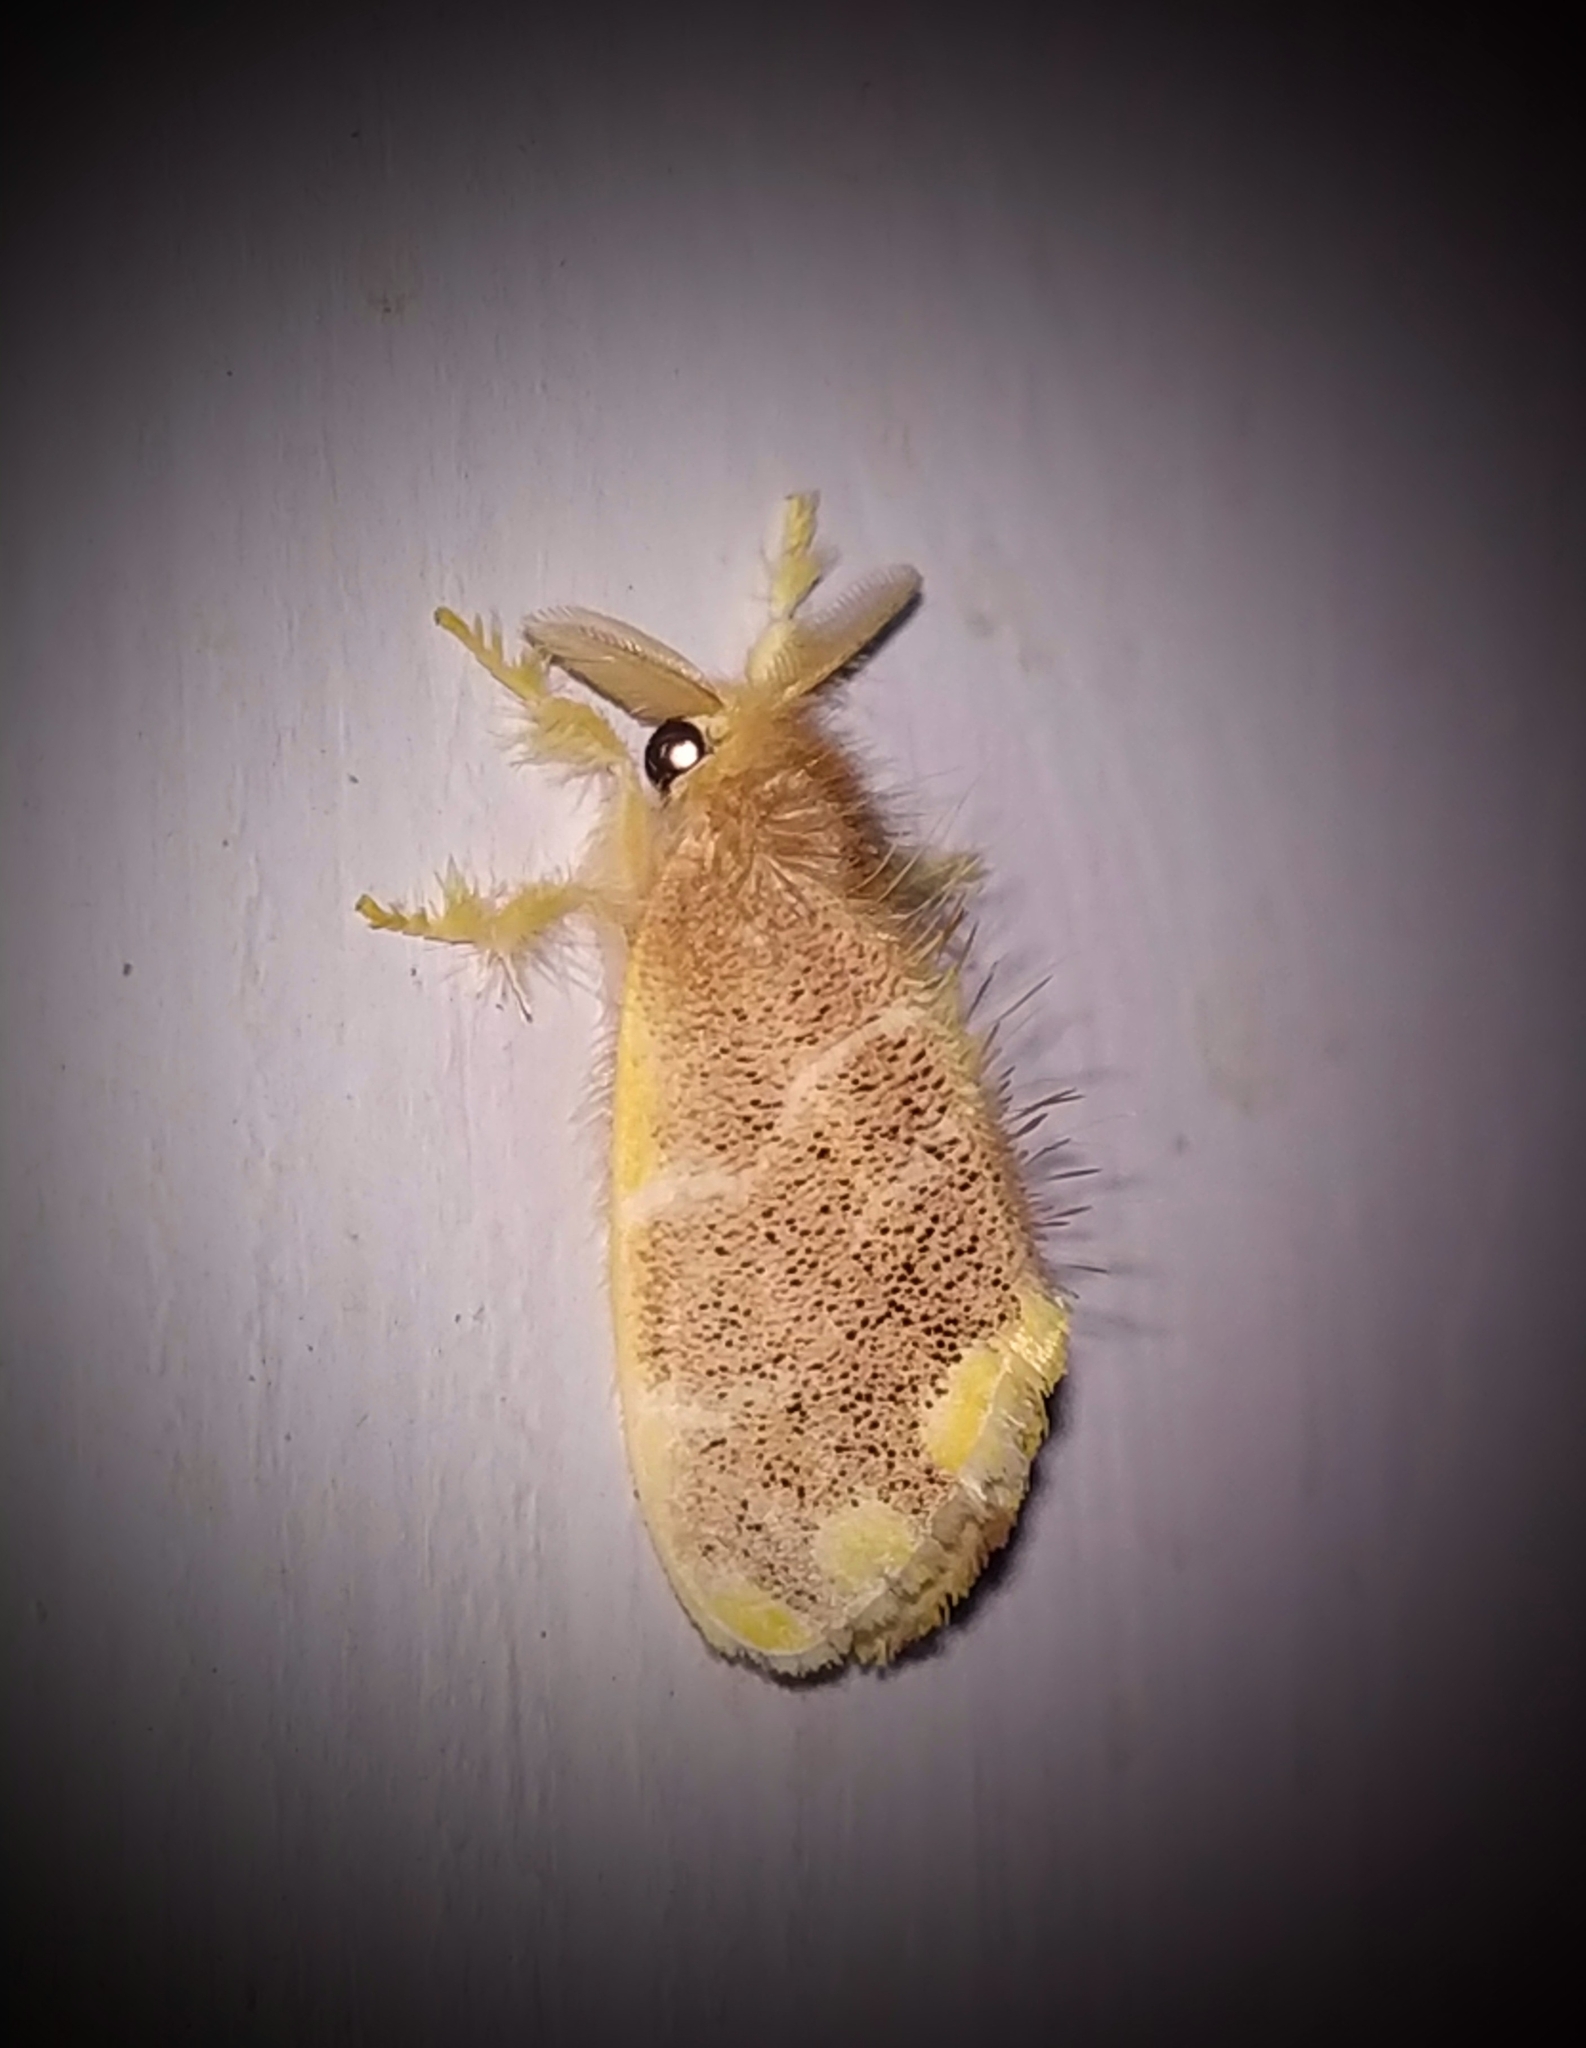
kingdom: Animalia
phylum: Arthropoda
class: Insecta
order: Lepidoptera
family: Erebidae
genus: Orvasca
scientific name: Orvasca subnotata
